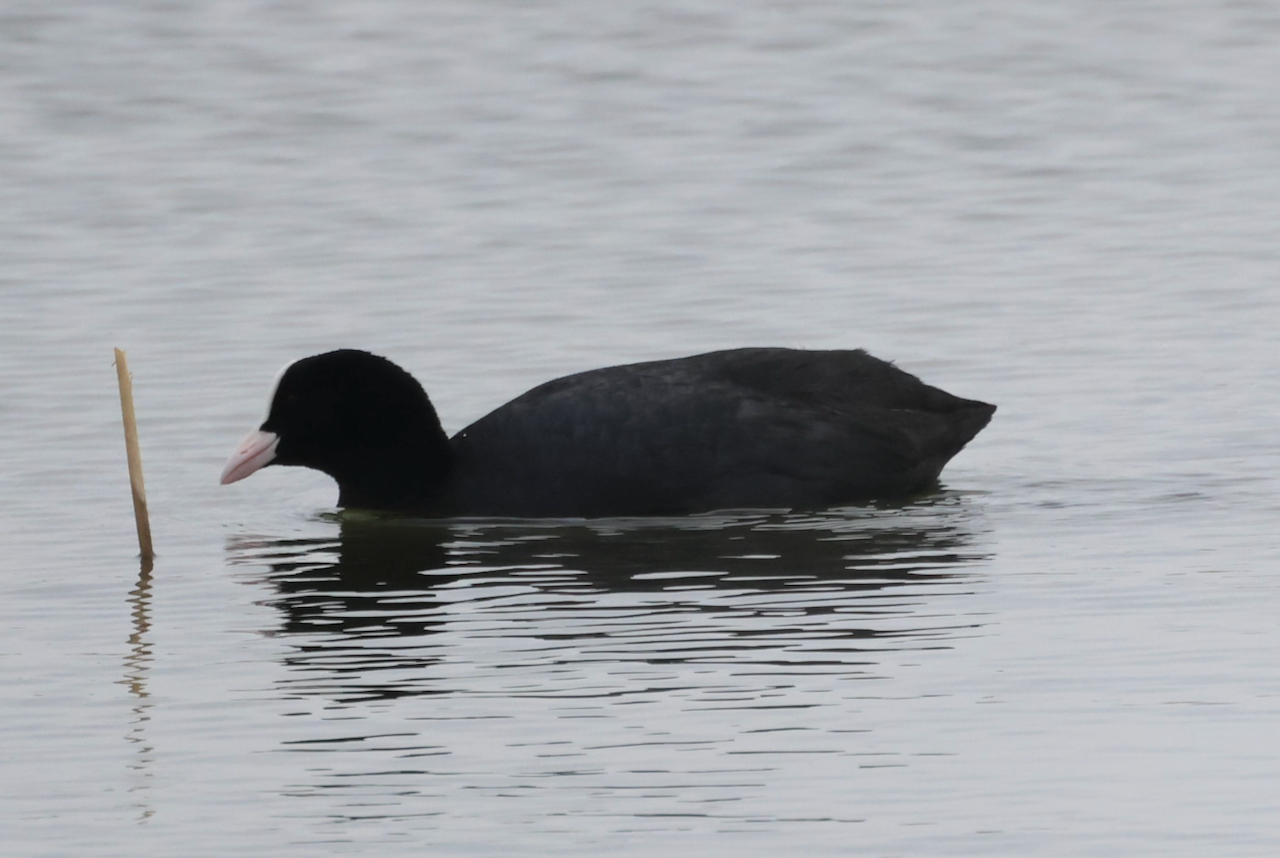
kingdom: Animalia
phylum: Chordata
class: Aves
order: Gruiformes
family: Rallidae
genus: Fulica
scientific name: Fulica atra
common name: Eurasian coot
